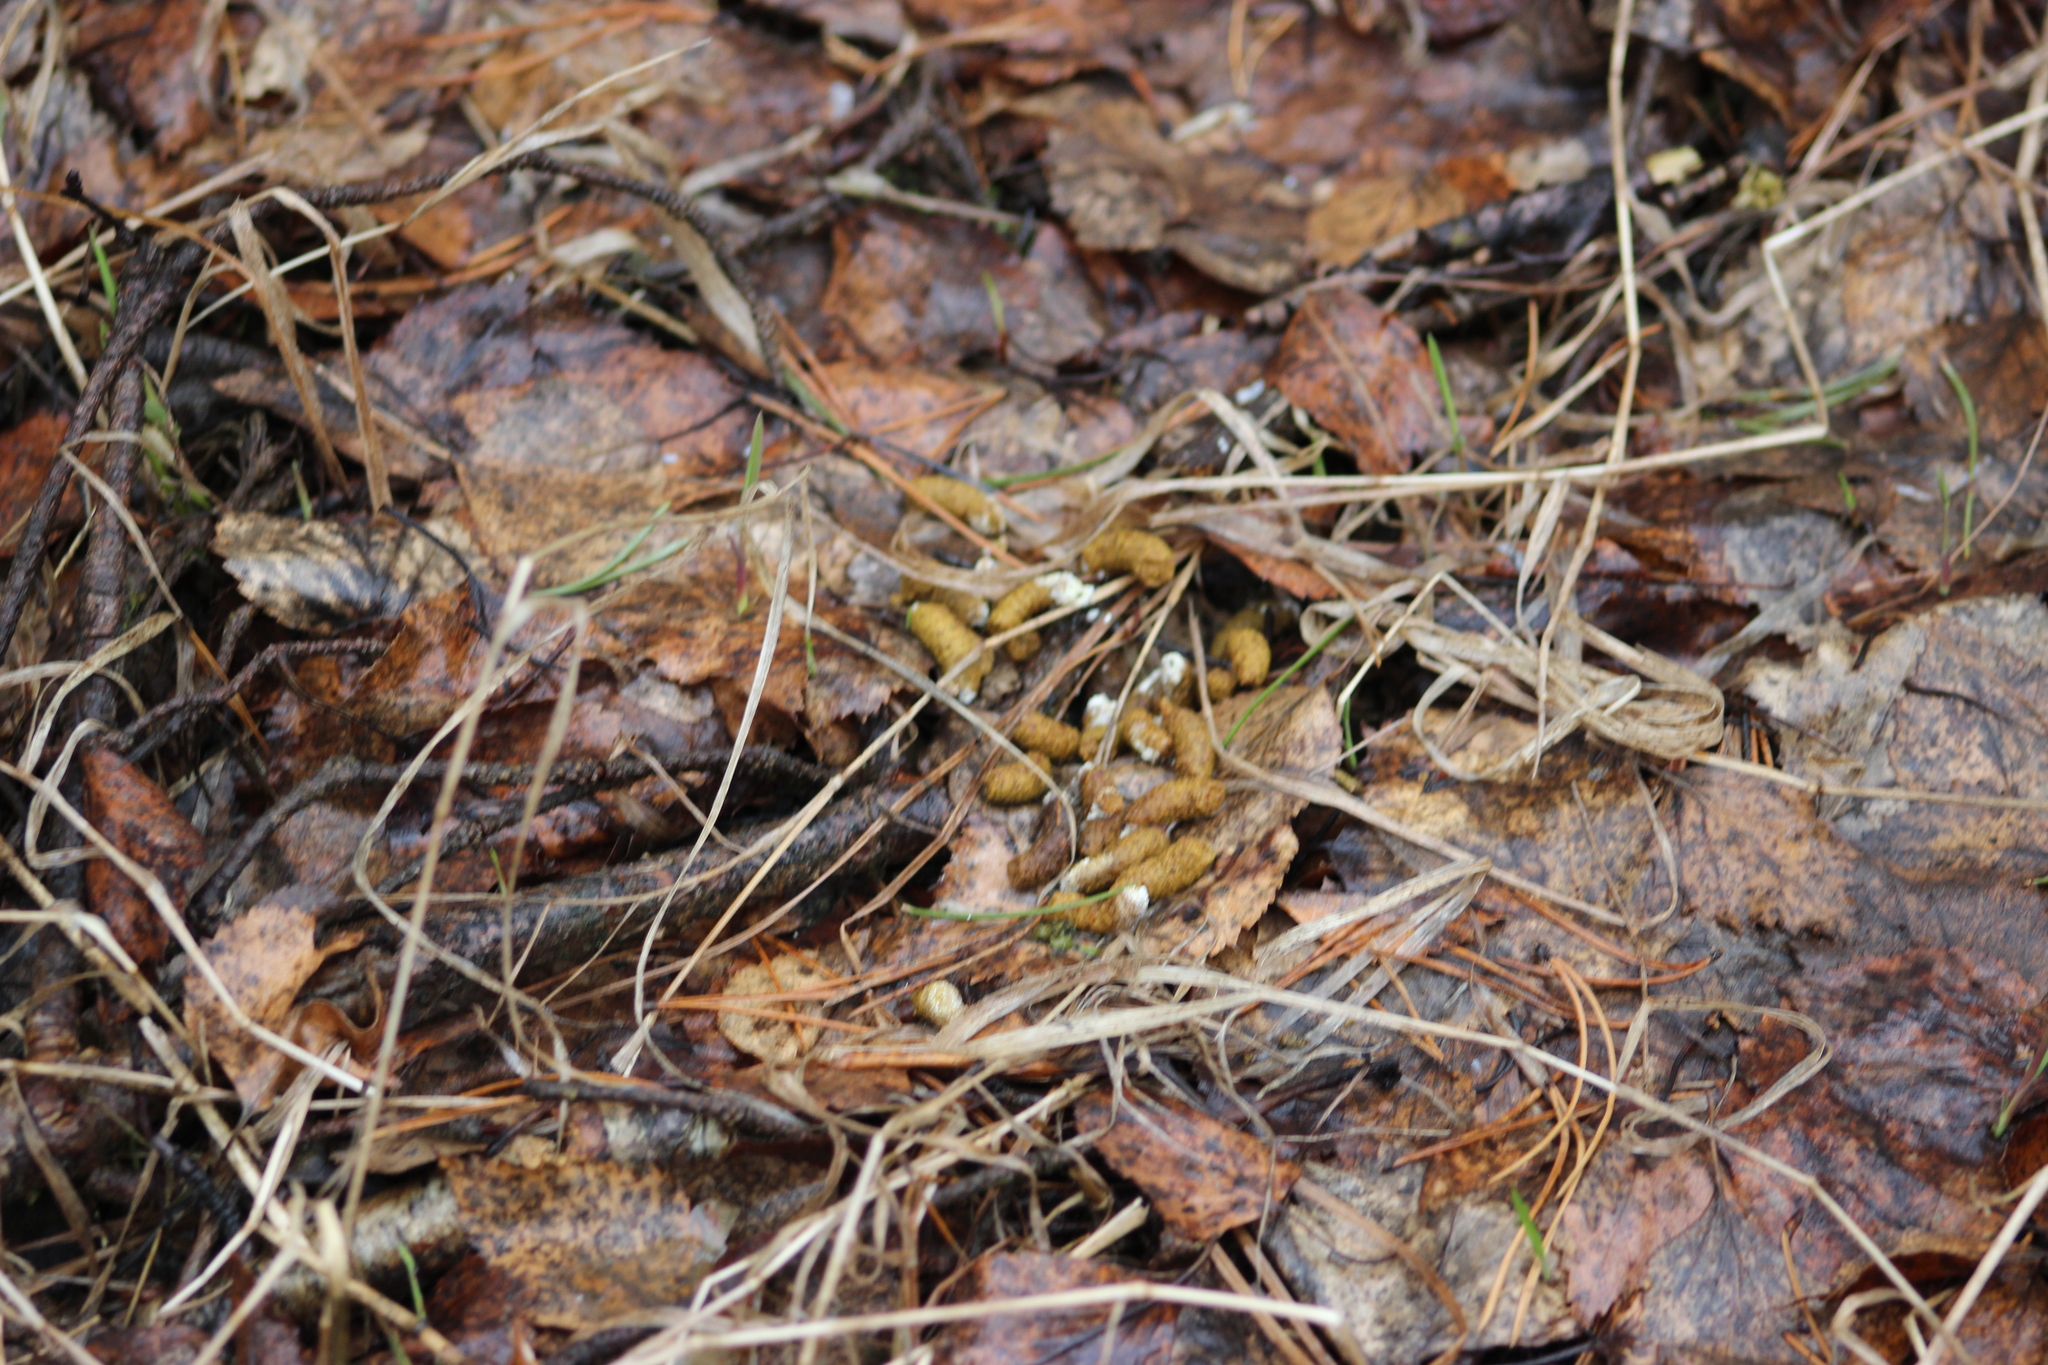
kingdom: Animalia
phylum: Chordata
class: Aves
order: Galliformes
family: Phasianidae
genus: Tetrastes
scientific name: Tetrastes bonasia
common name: Hazel grouse
